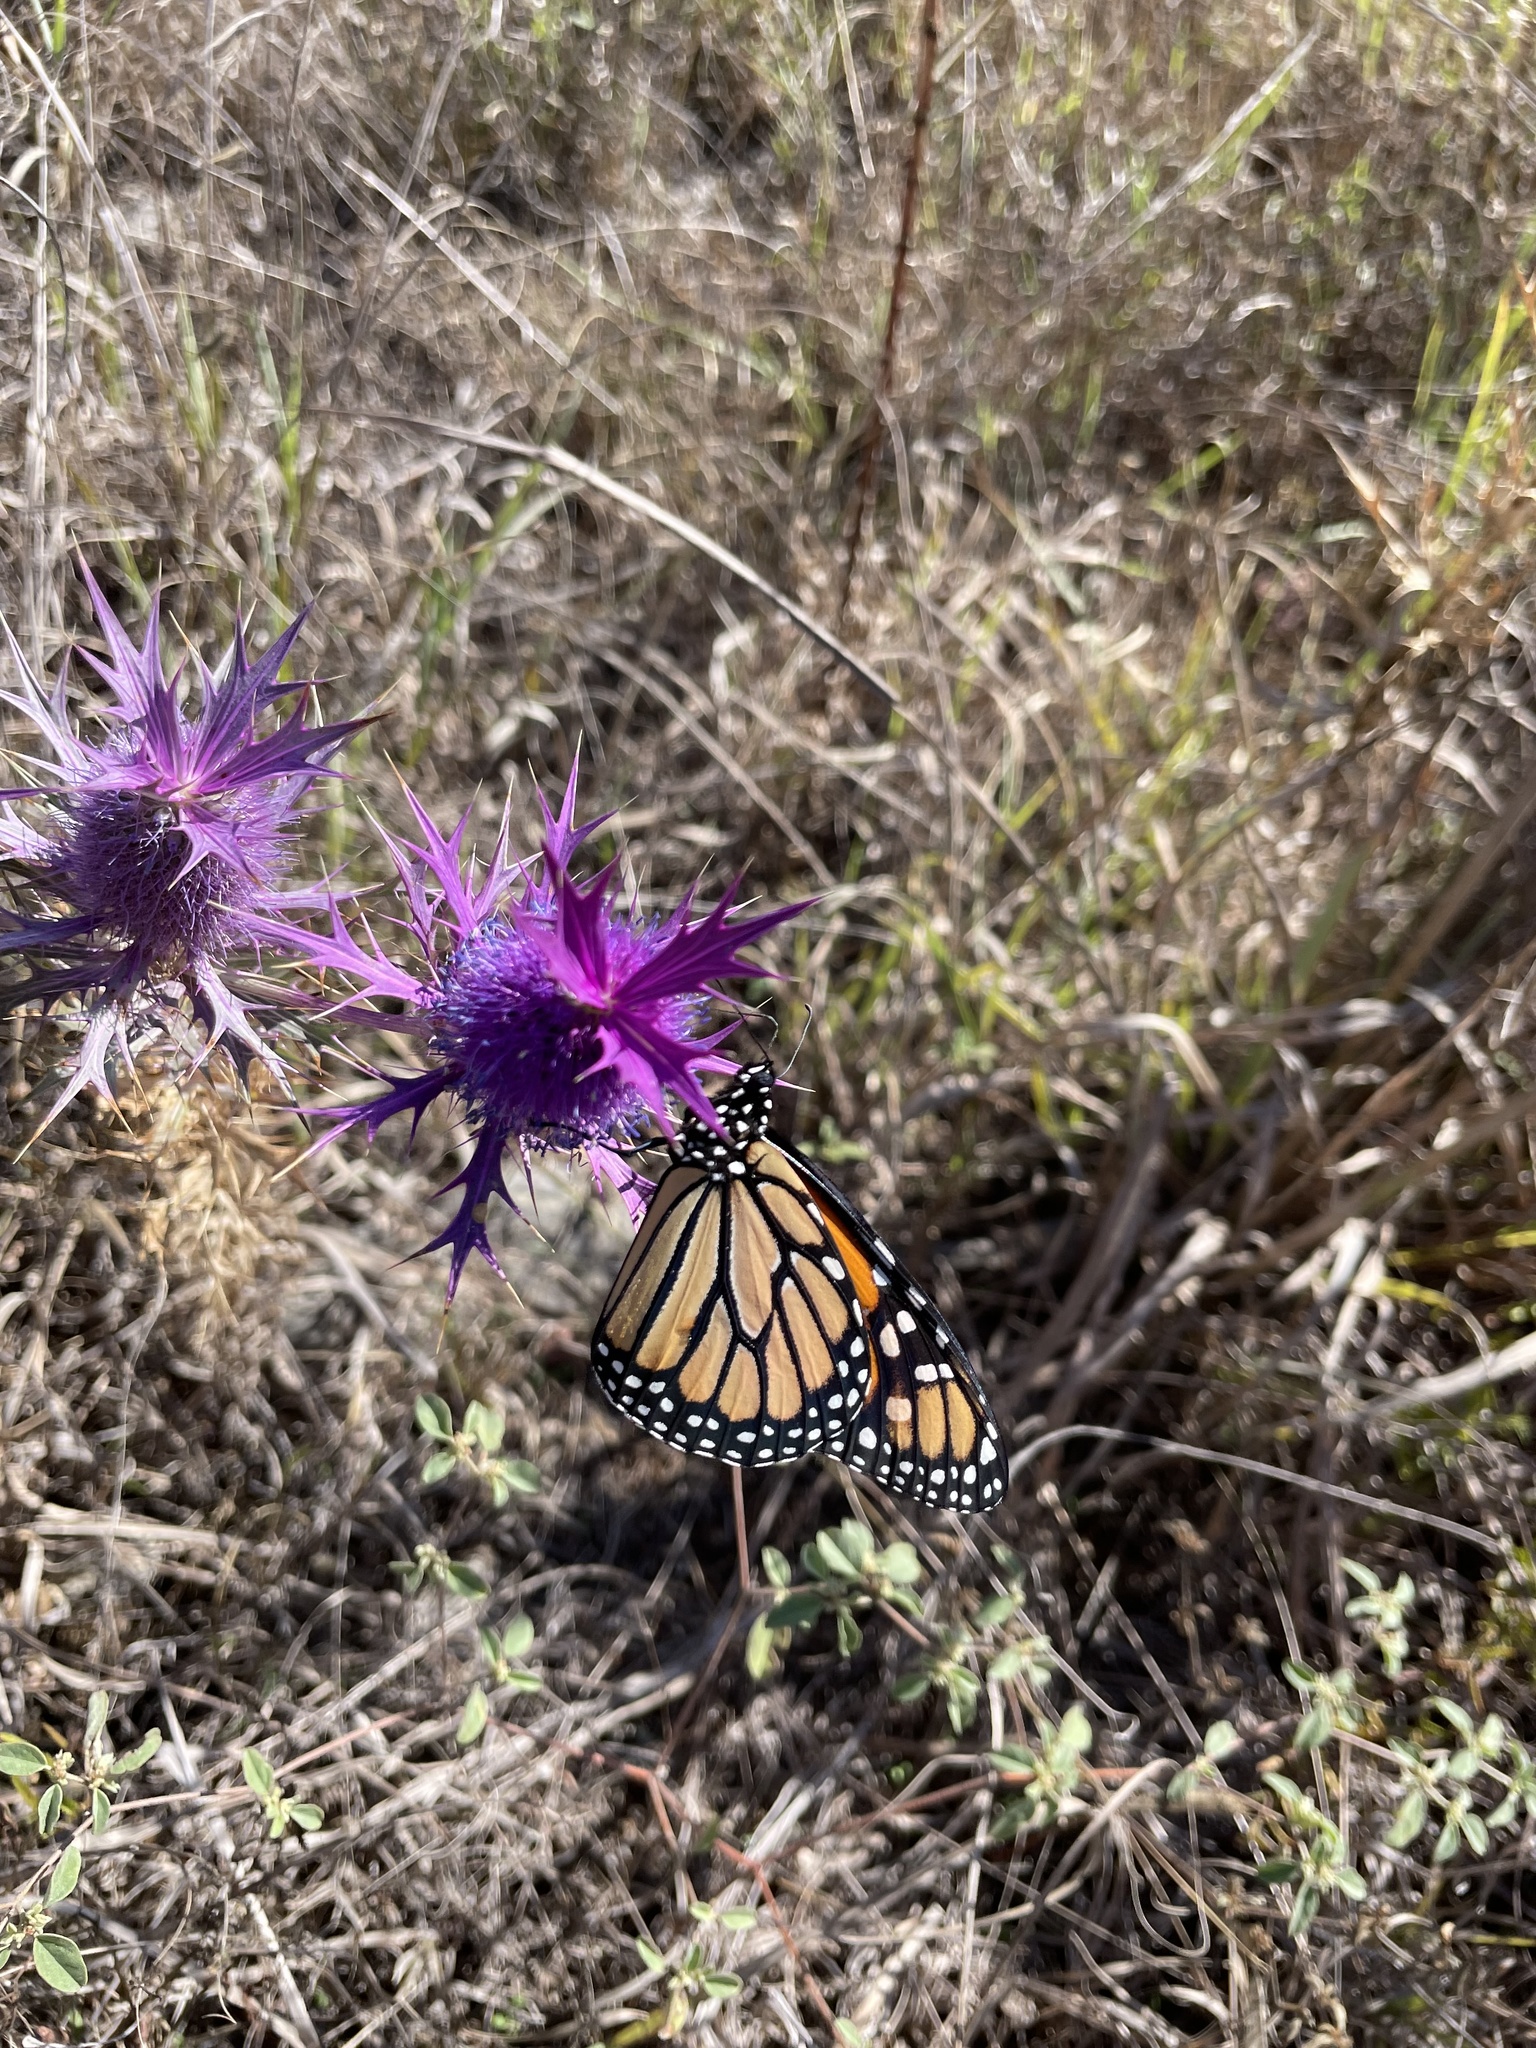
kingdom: Animalia
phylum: Arthropoda
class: Insecta
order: Lepidoptera
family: Nymphalidae
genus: Danaus
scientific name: Danaus plexippus
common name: Monarch
